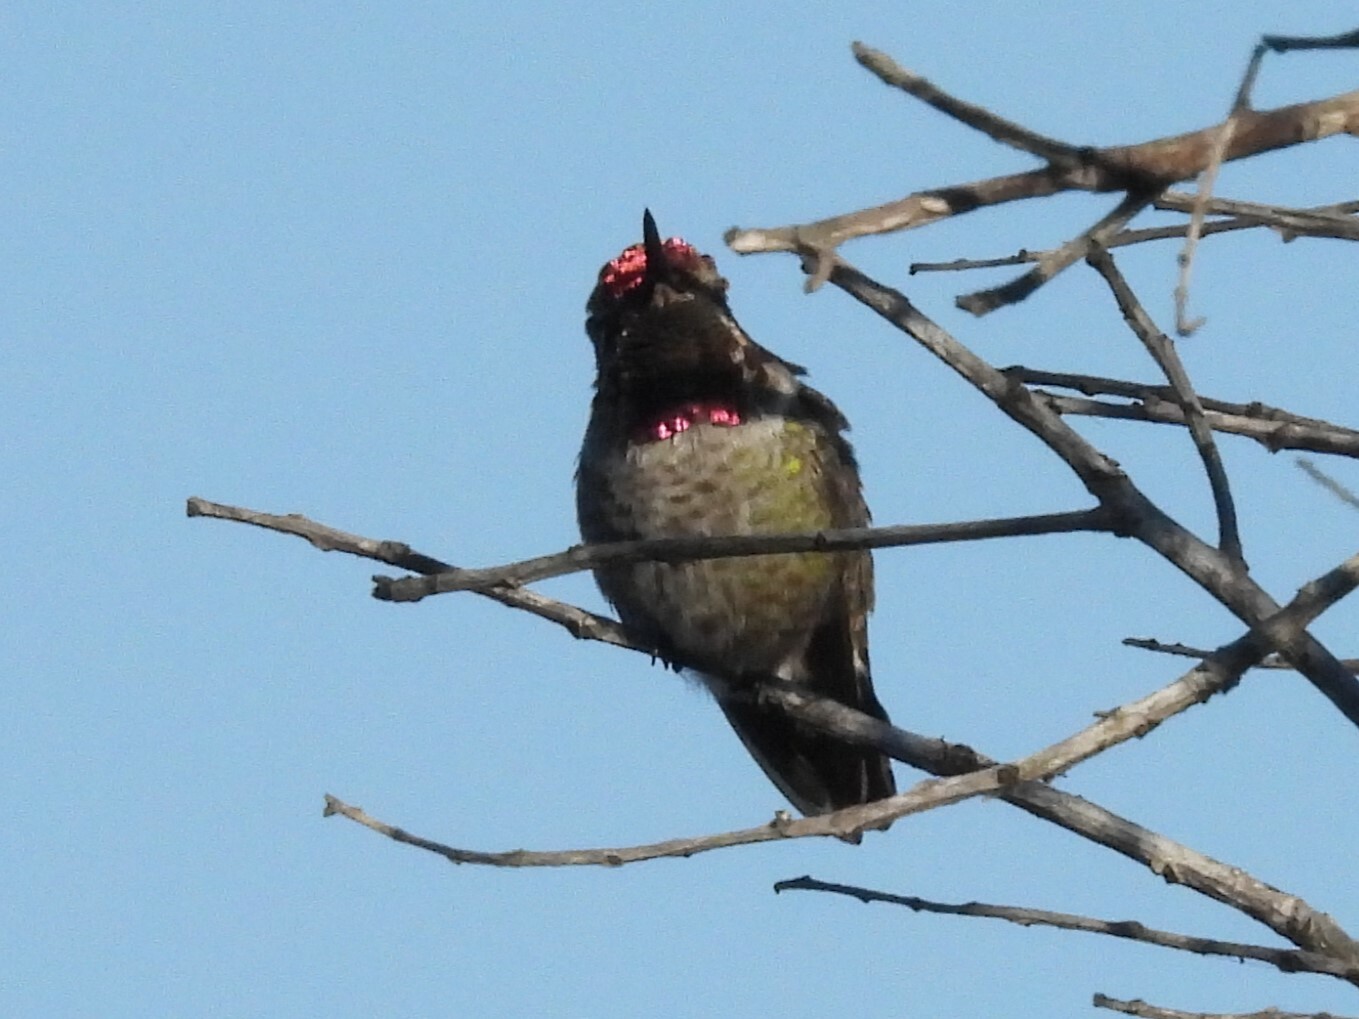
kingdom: Animalia
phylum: Chordata
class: Aves
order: Apodiformes
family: Trochilidae
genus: Calypte
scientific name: Calypte anna
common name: Anna's hummingbird
